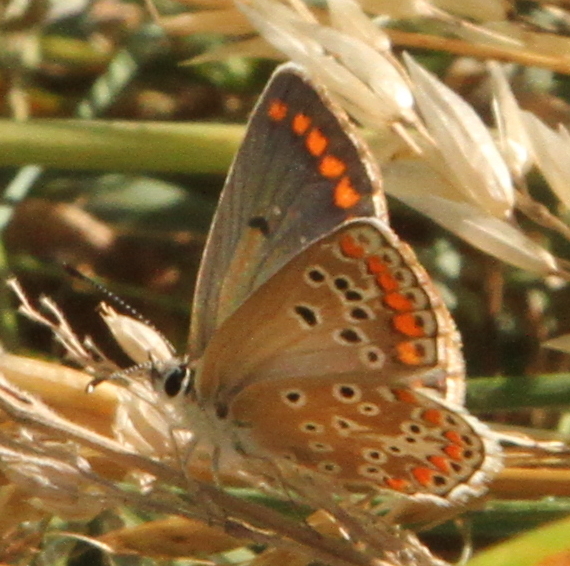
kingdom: Animalia
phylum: Arthropoda
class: Insecta
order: Lepidoptera
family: Lycaenidae
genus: Aricia
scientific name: Aricia agestis
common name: Brown argus
